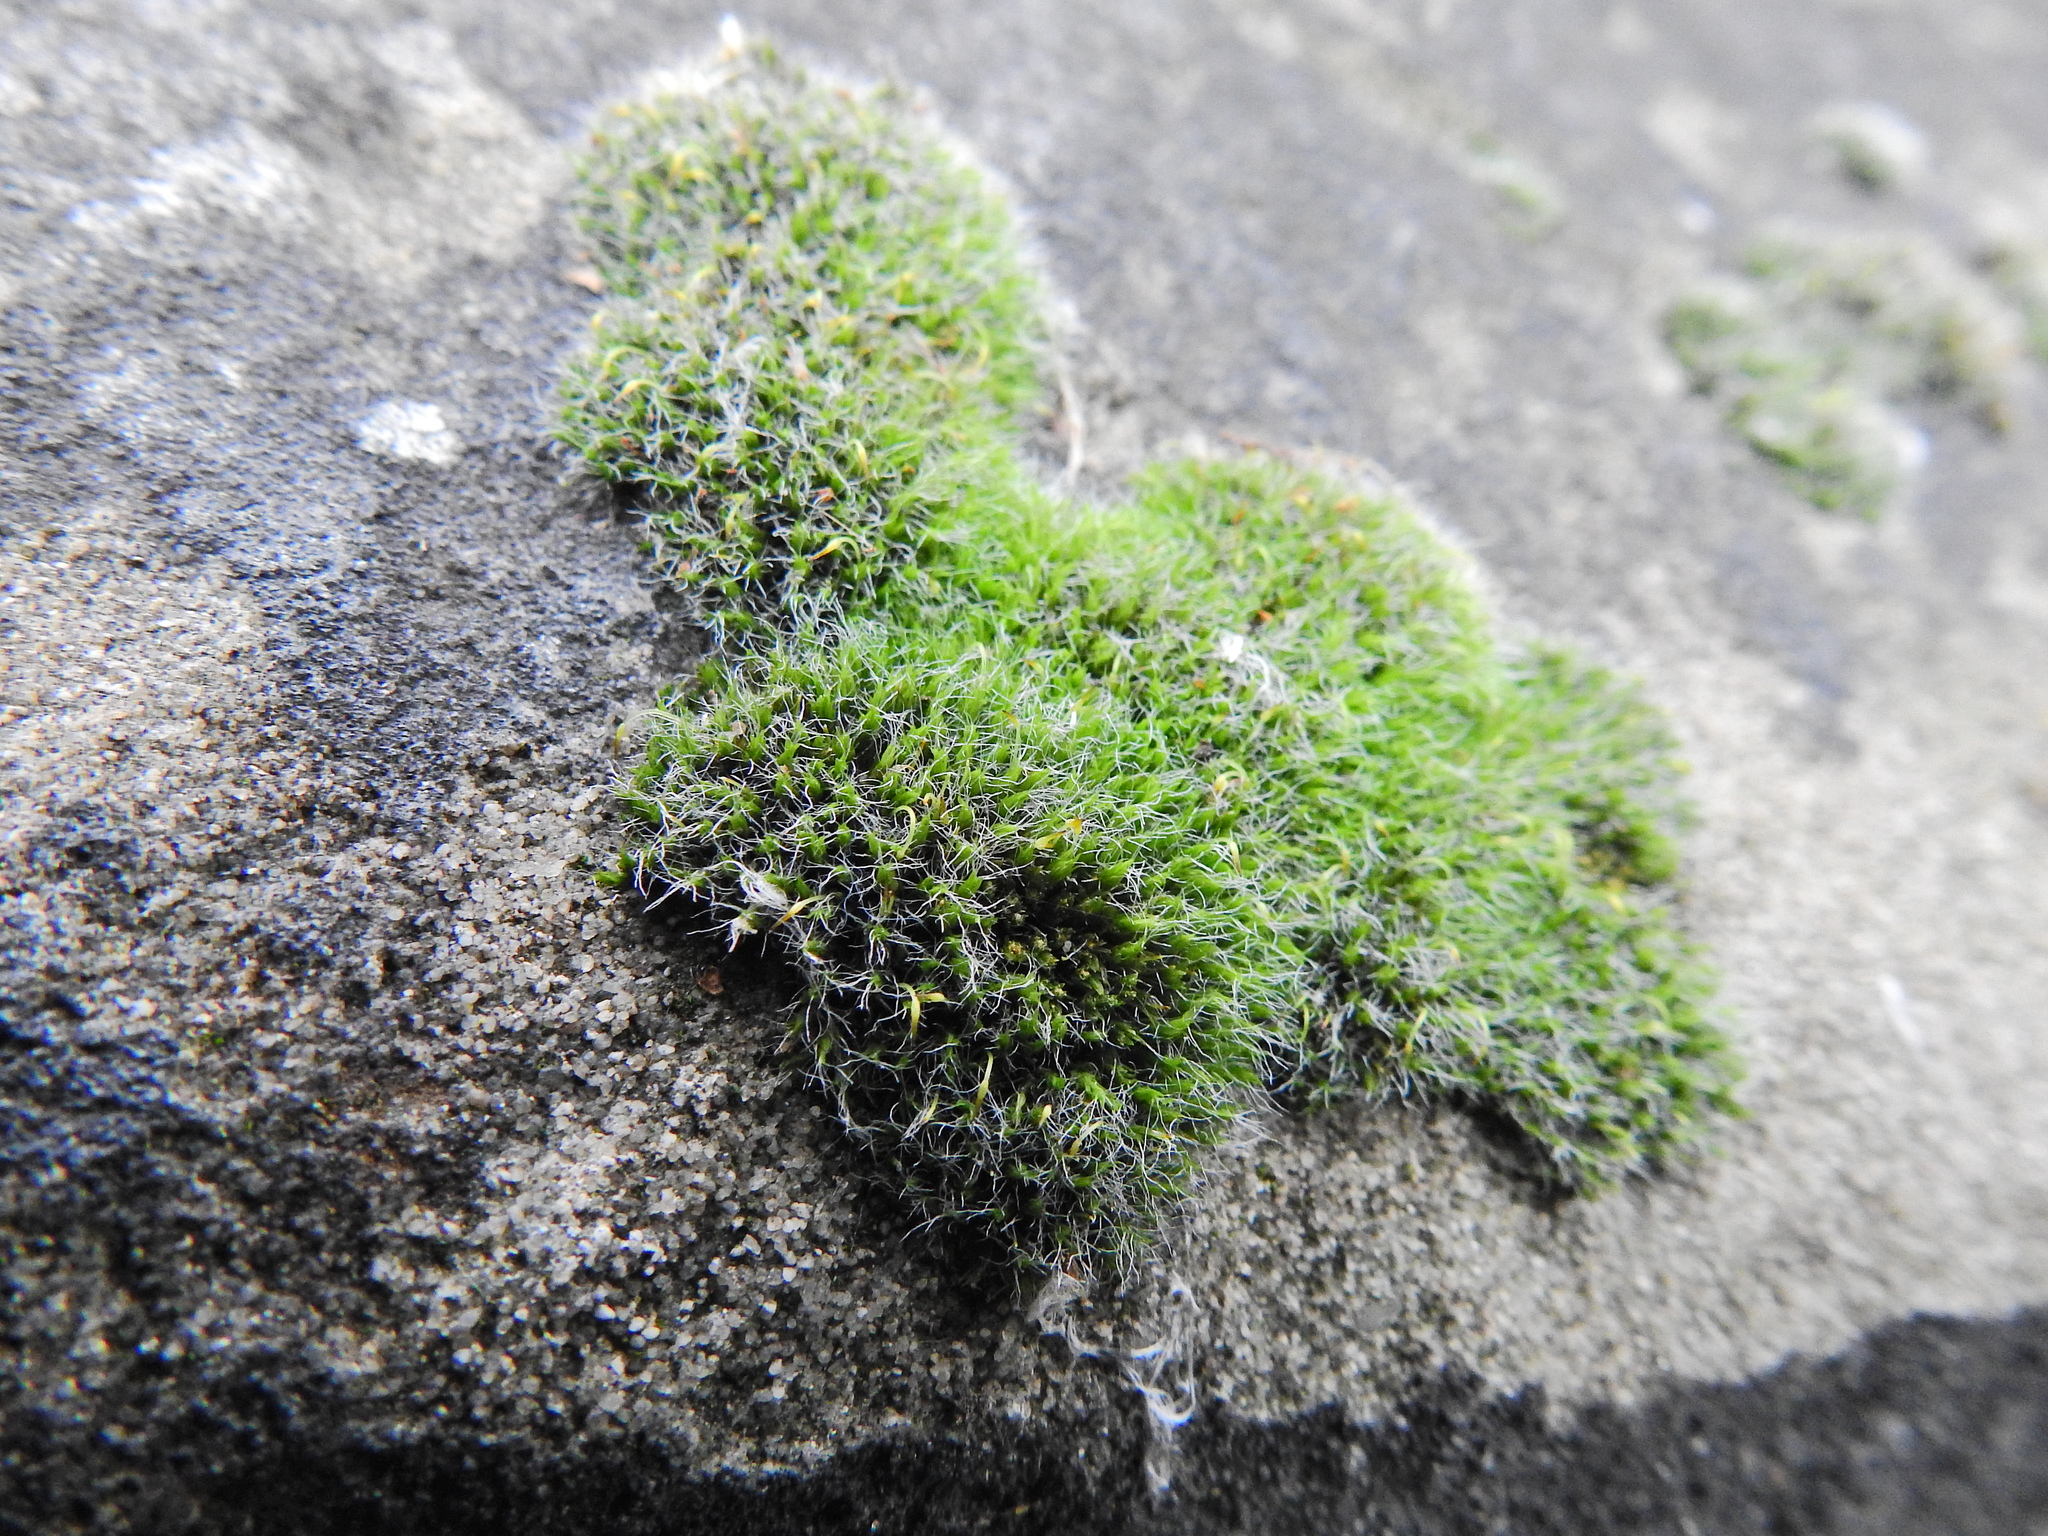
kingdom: Plantae
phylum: Bryophyta
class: Bryopsida
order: Grimmiales
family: Grimmiaceae
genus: Grimmia
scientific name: Grimmia pulvinata
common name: Grey-cushioned grimmia
